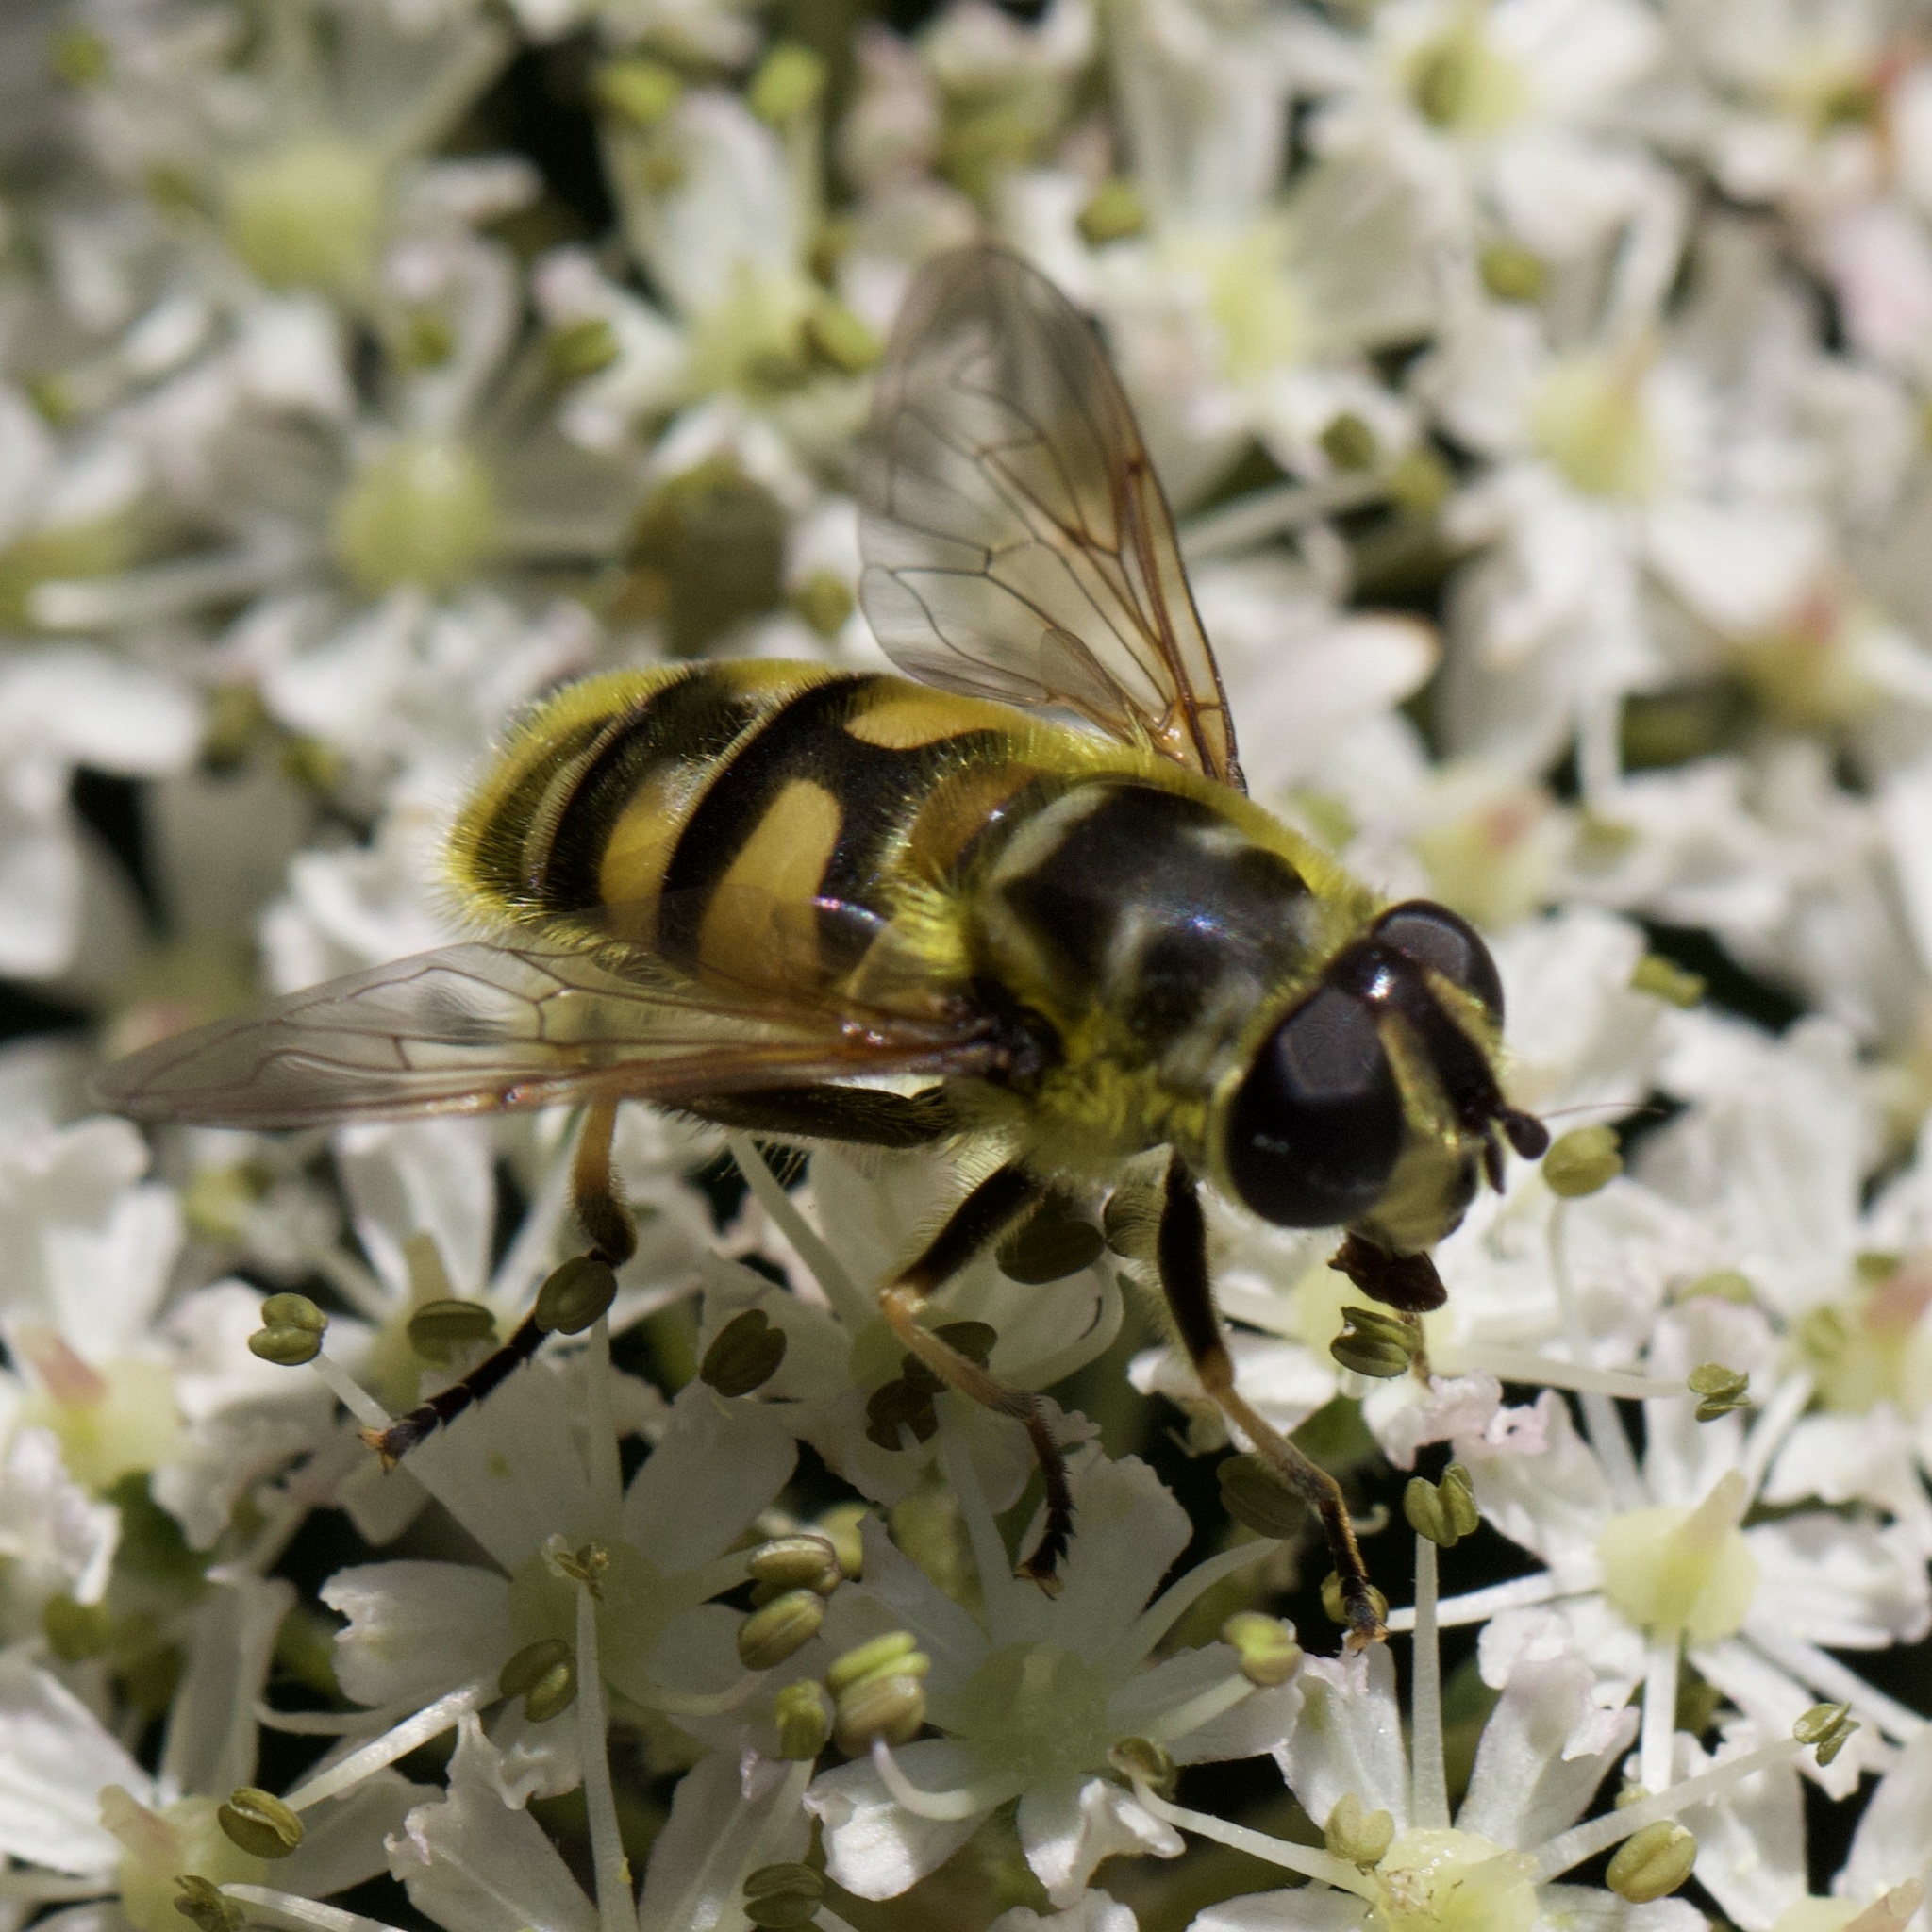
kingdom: Animalia
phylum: Arthropoda
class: Insecta
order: Diptera
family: Syrphidae
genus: Myathropa
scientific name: Myathropa florea
